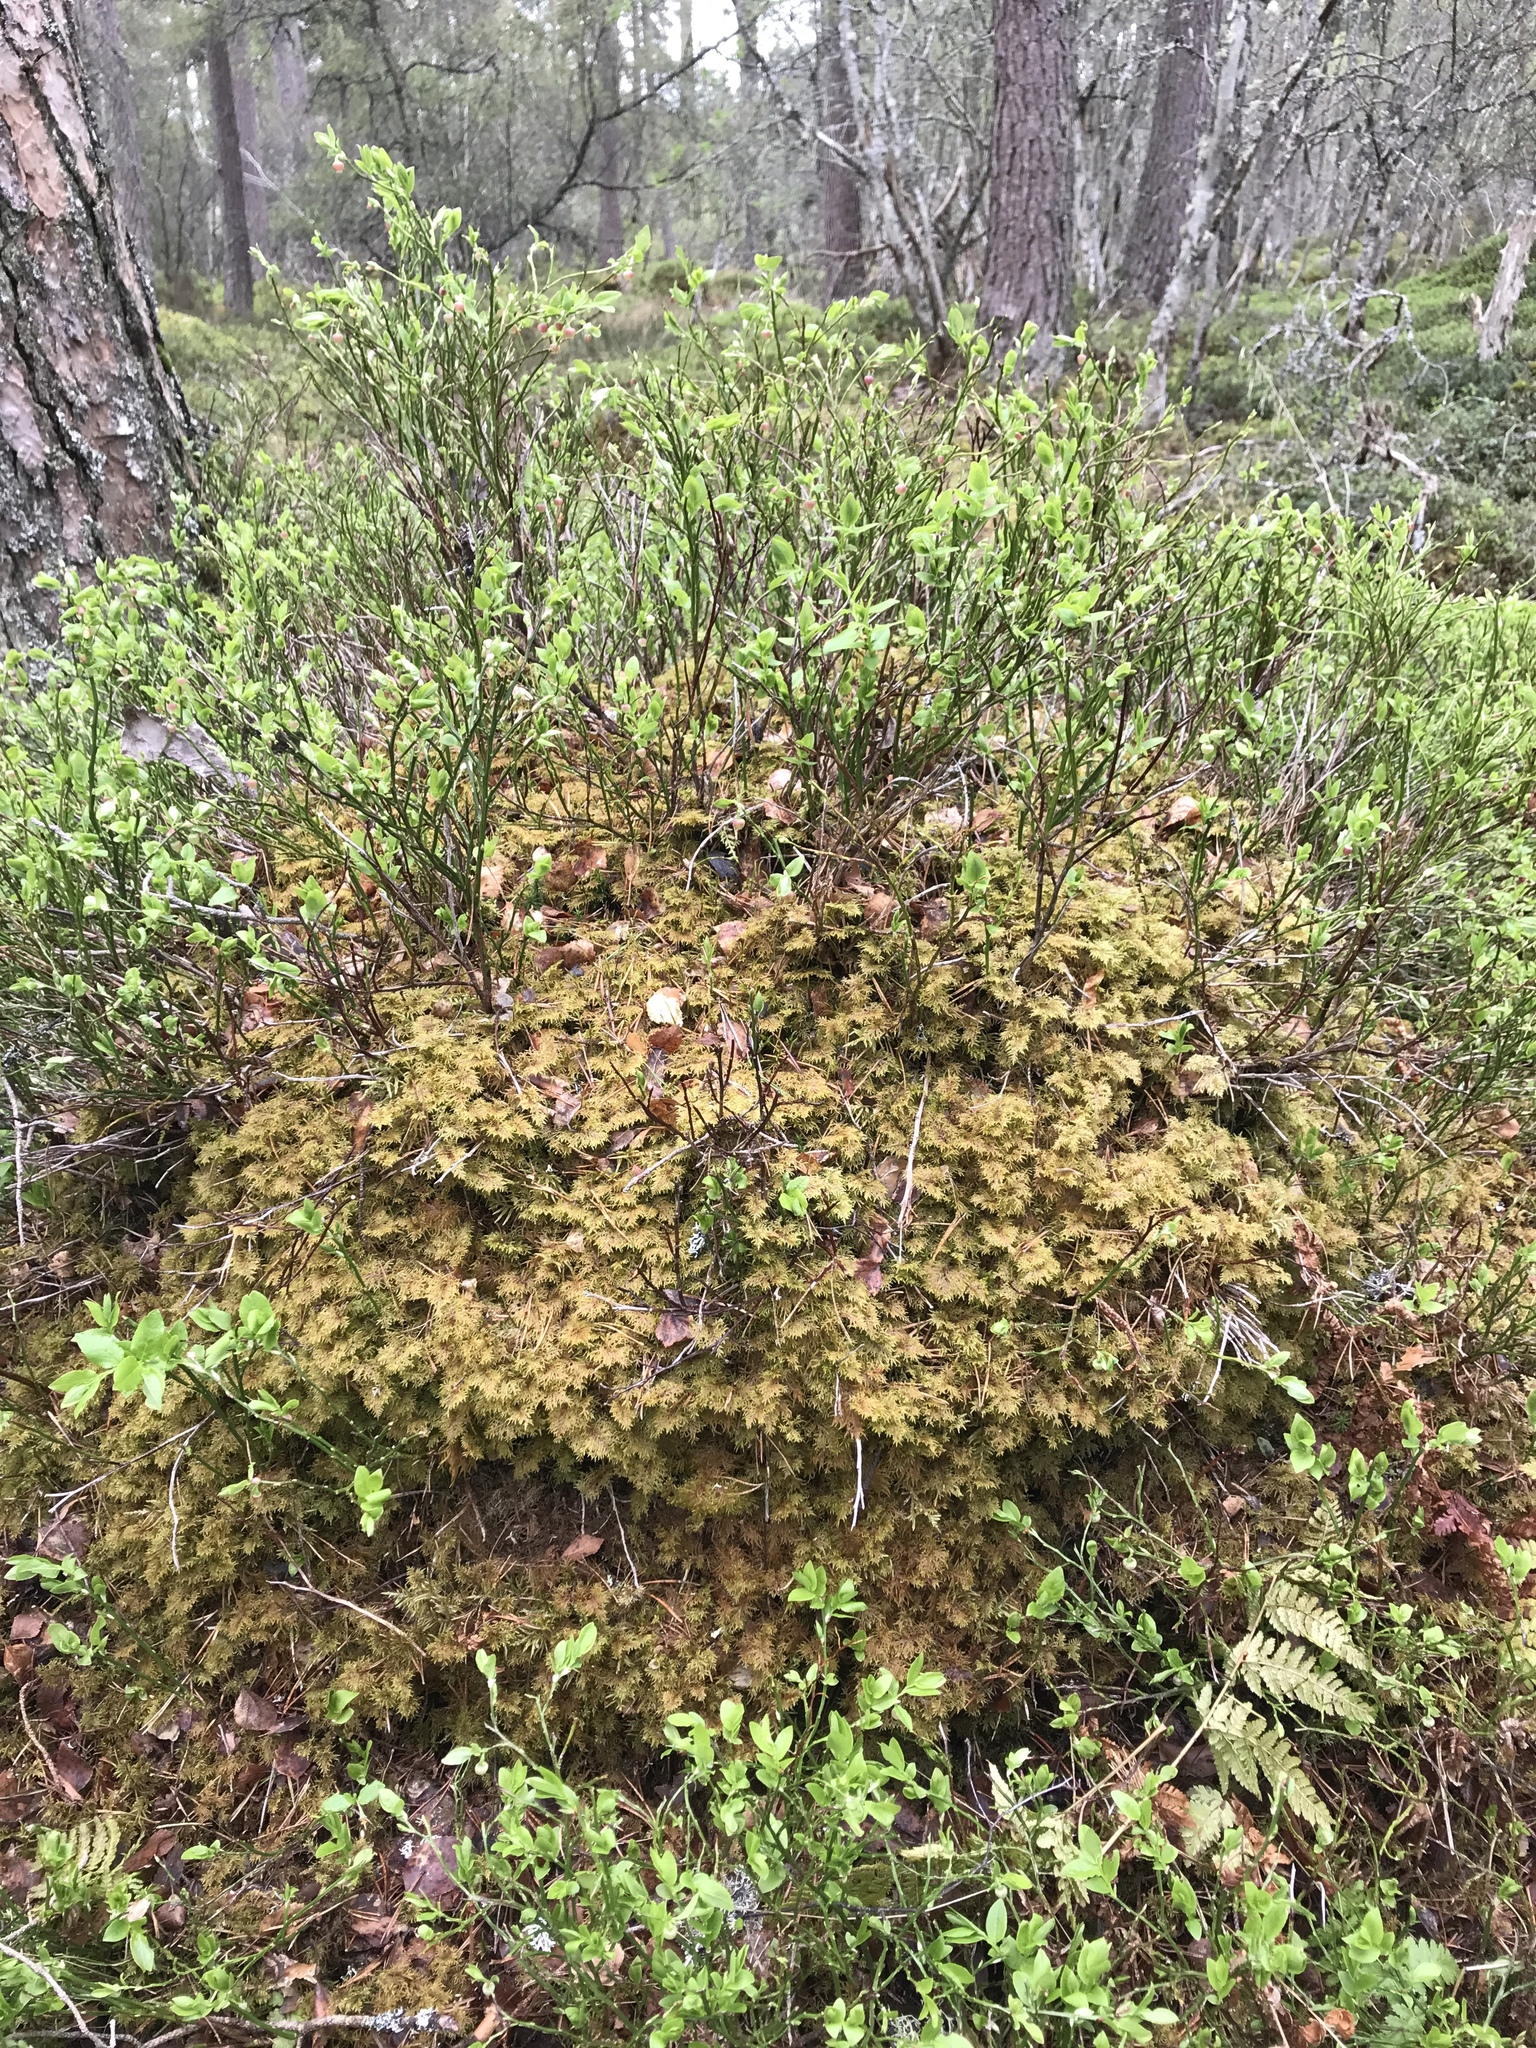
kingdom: Plantae
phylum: Bryophyta
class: Bryopsida
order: Hypnales
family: Hylocomiaceae
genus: Hylocomium
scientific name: Hylocomium splendens
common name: Stairstep moss
